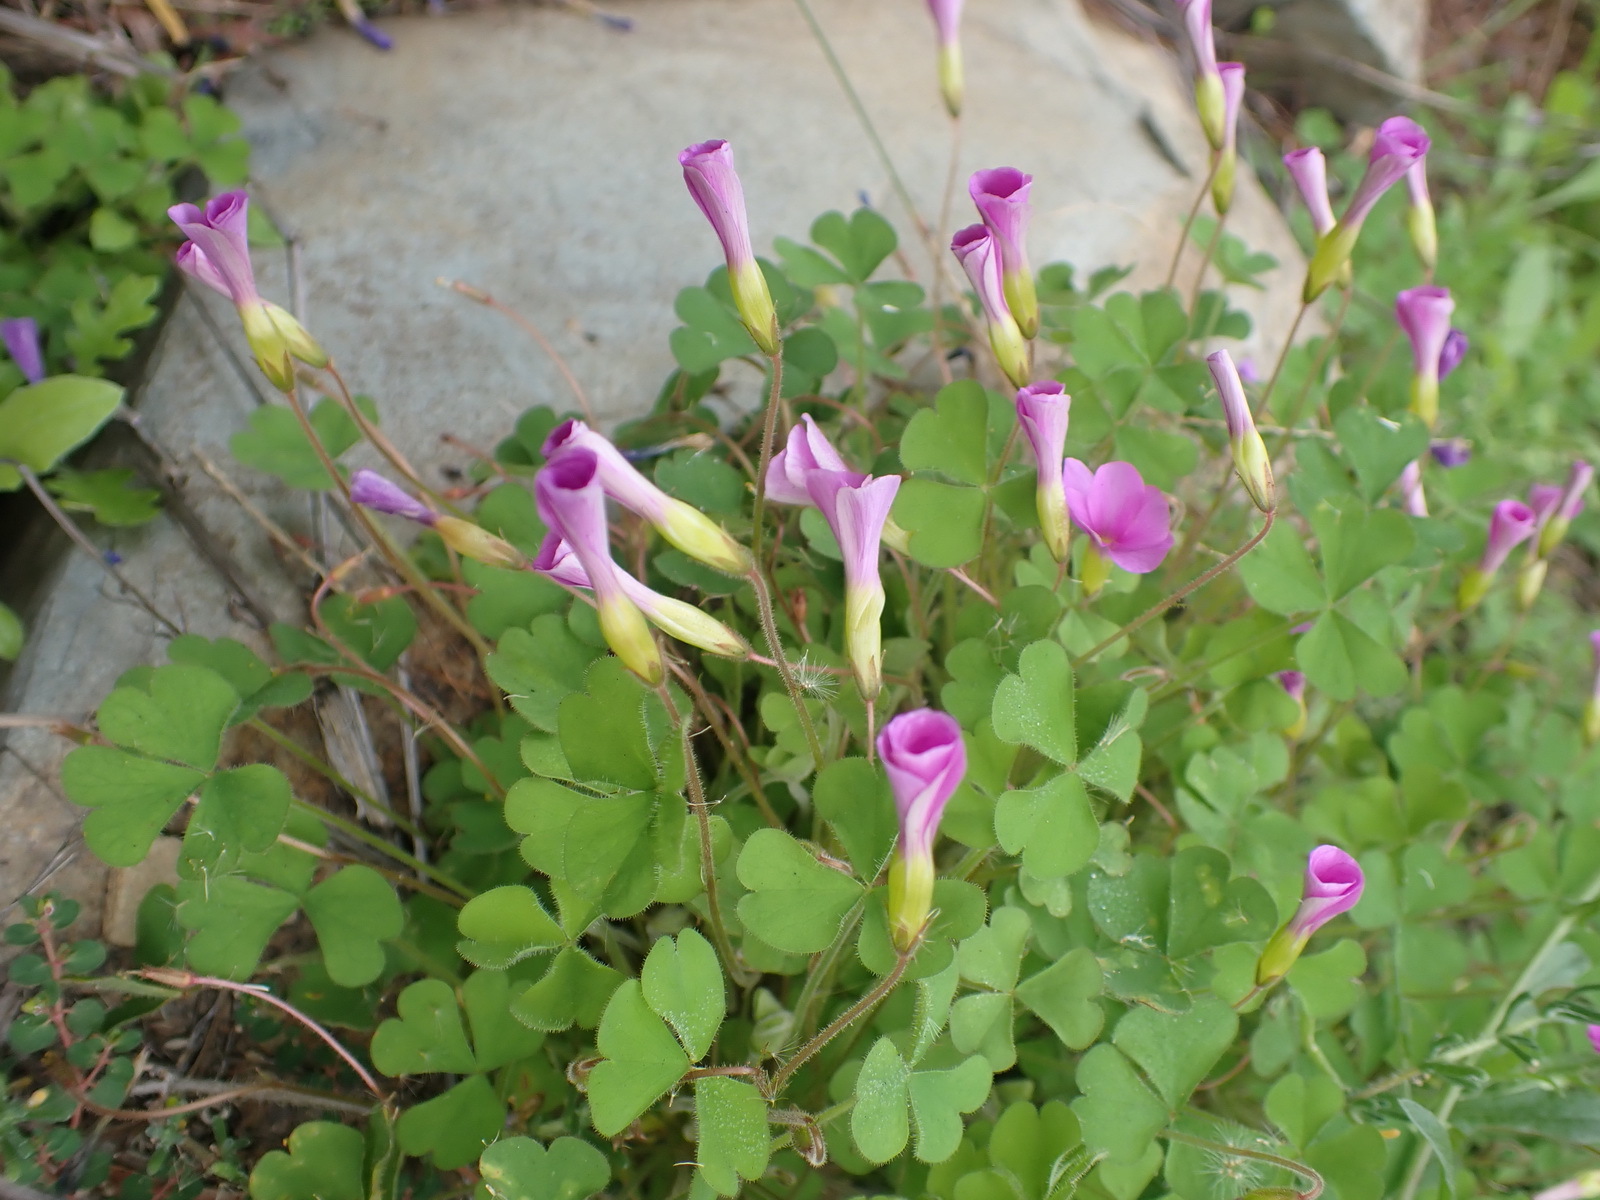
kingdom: Plantae
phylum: Tracheophyta
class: Magnoliopsida
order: Oxalidales
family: Oxalidaceae
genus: Oxalis
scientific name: Oxalis imbricata
